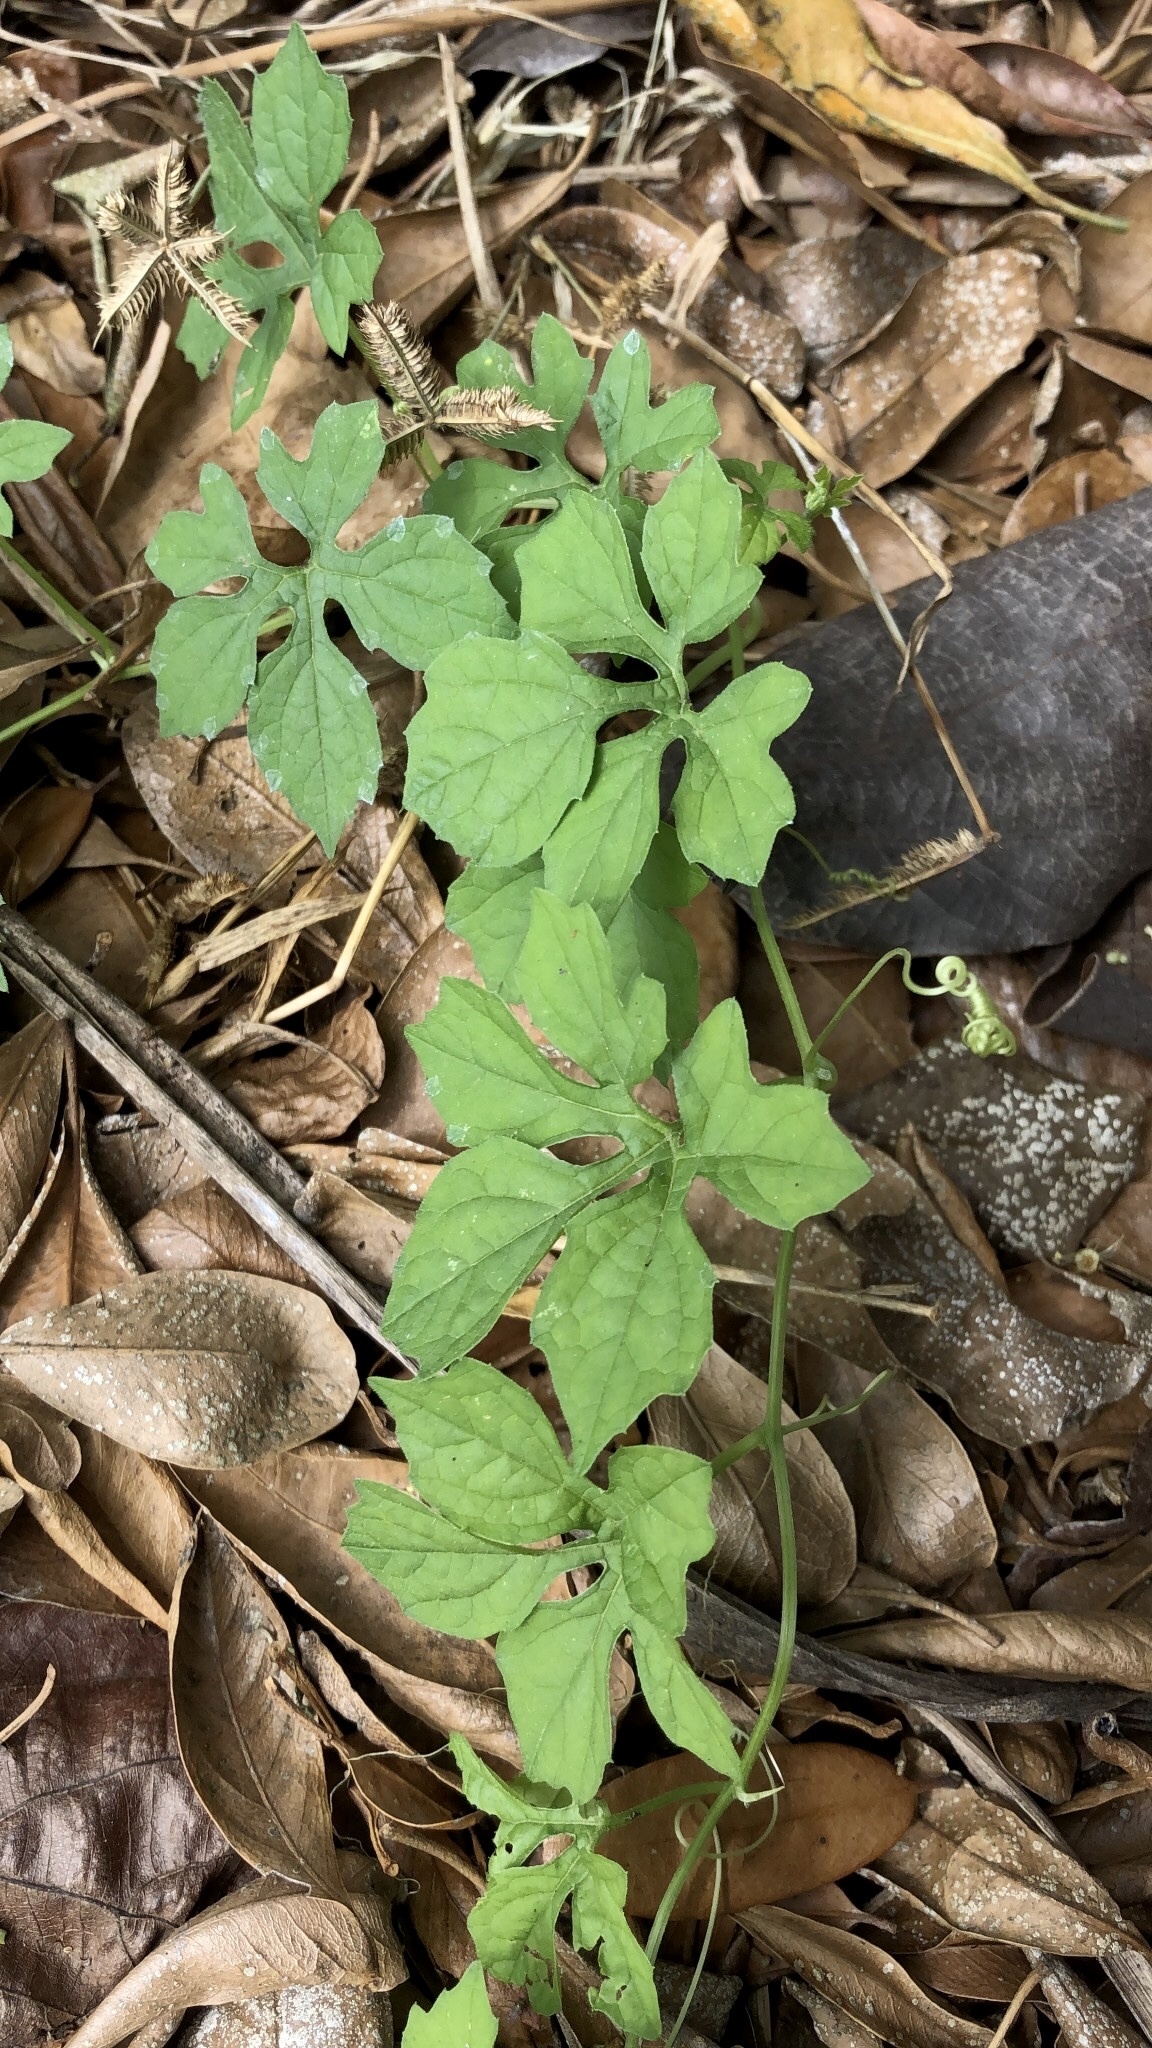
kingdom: Plantae
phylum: Tracheophyta
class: Magnoliopsida
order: Cucurbitales
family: Cucurbitaceae
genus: Momordica
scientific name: Momordica charantia
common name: Balsampear
